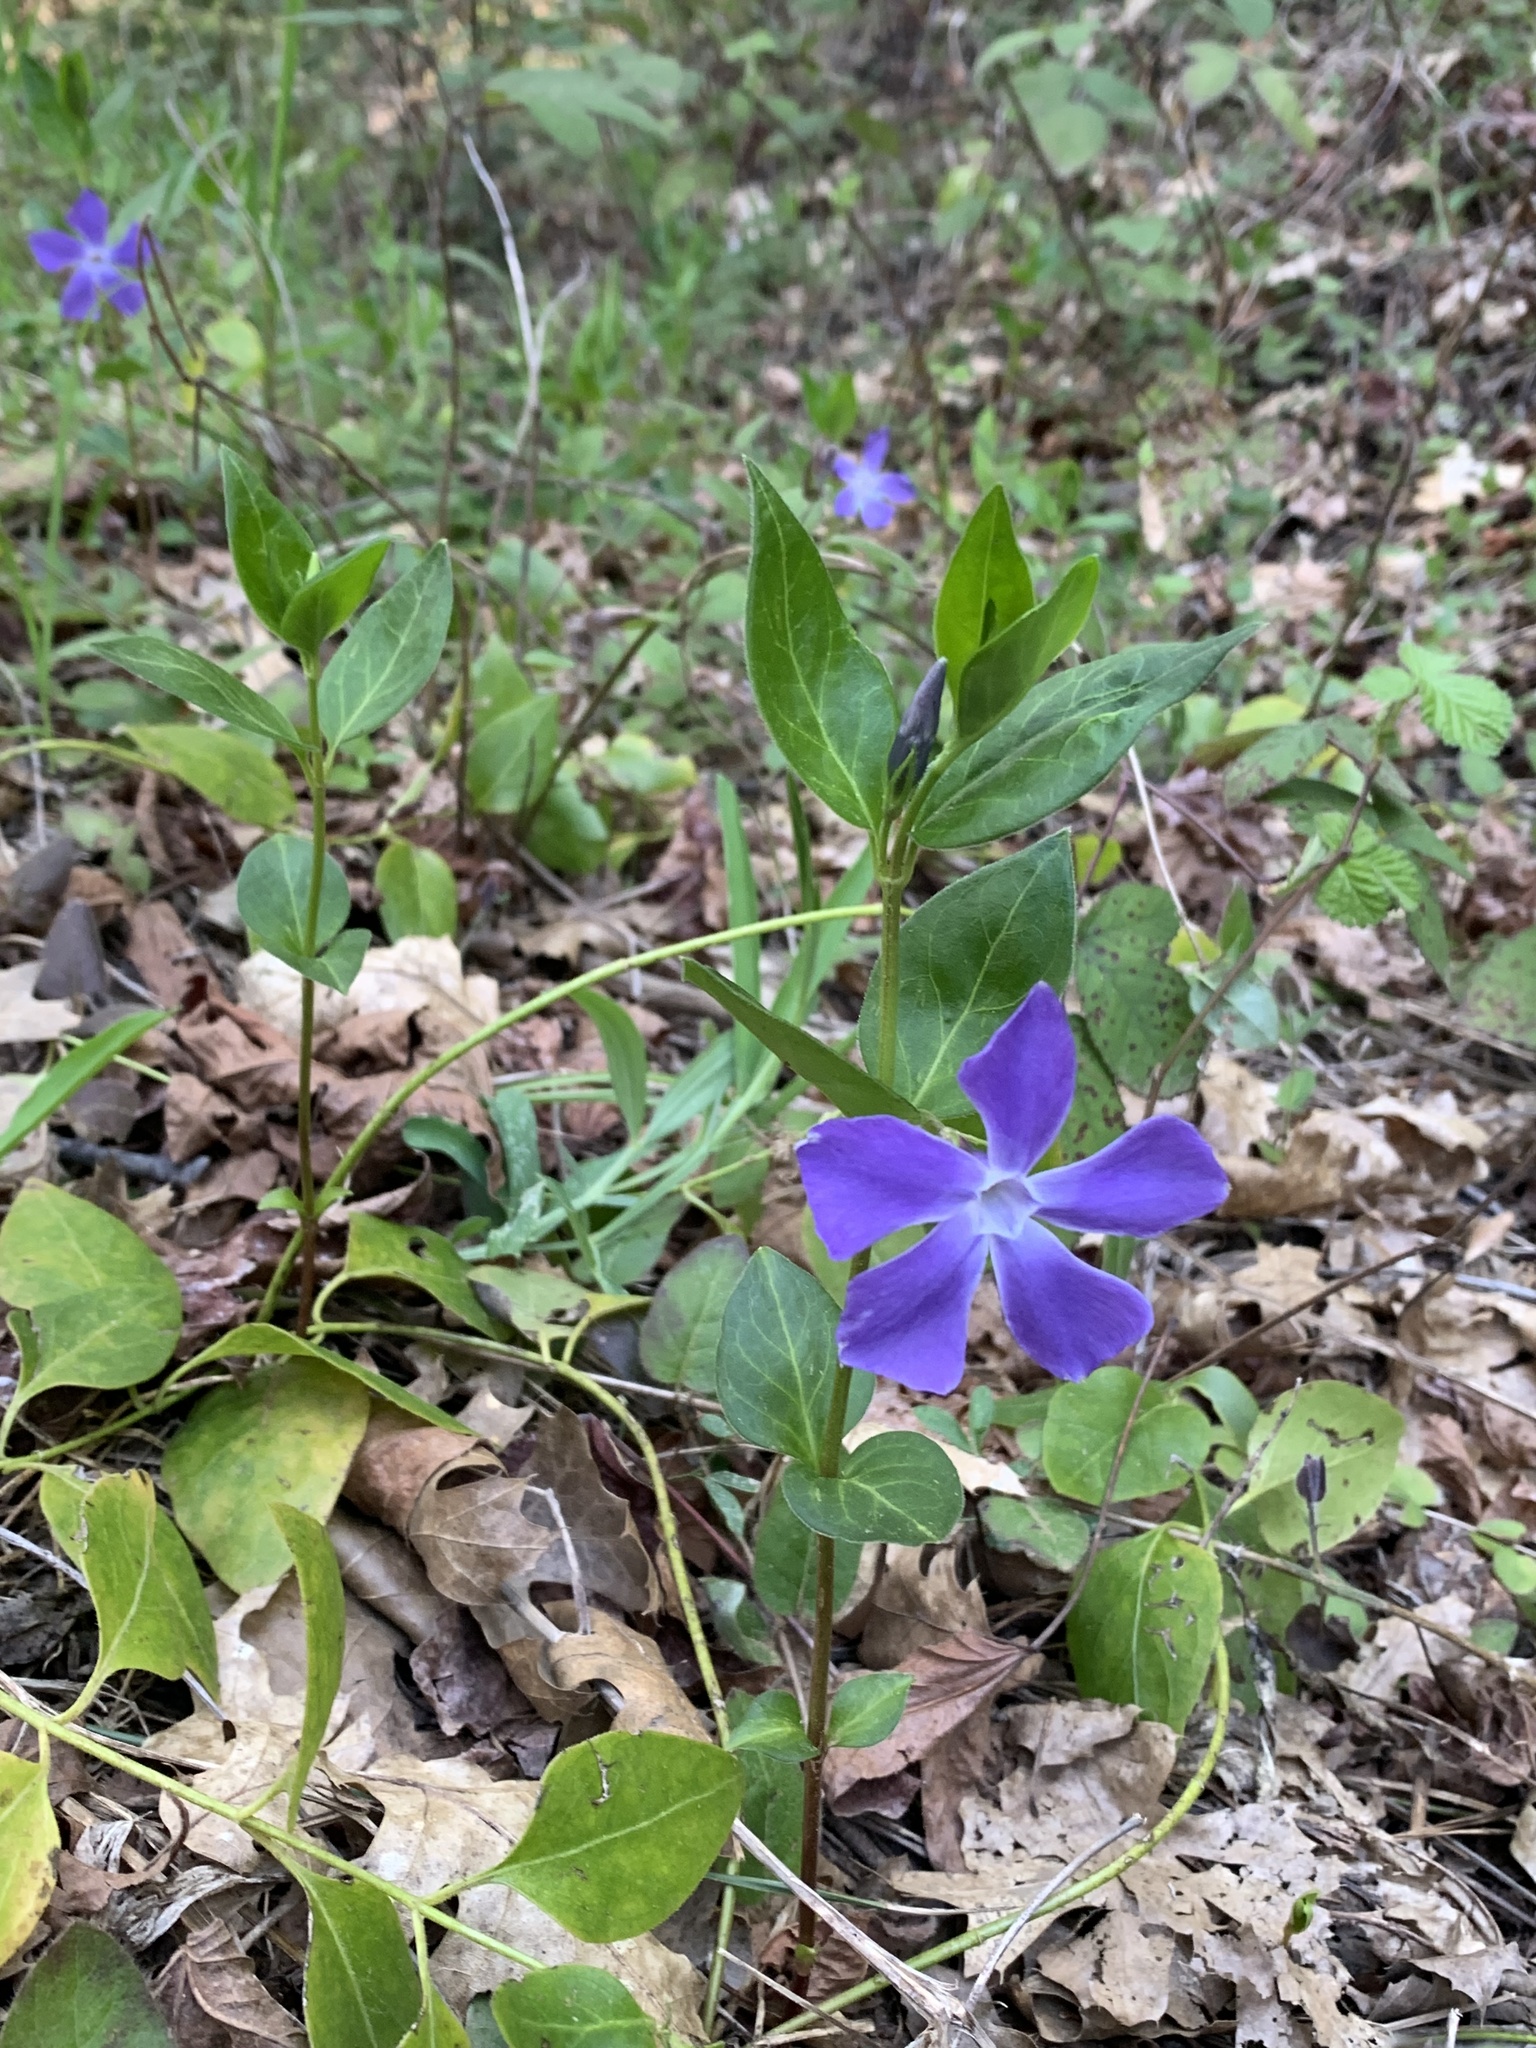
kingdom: Plantae
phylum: Tracheophyta
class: Magnoliopsida
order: Gentianales
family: Apocynaceae
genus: Vinca
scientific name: Vinca major
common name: Greater periwinkle
